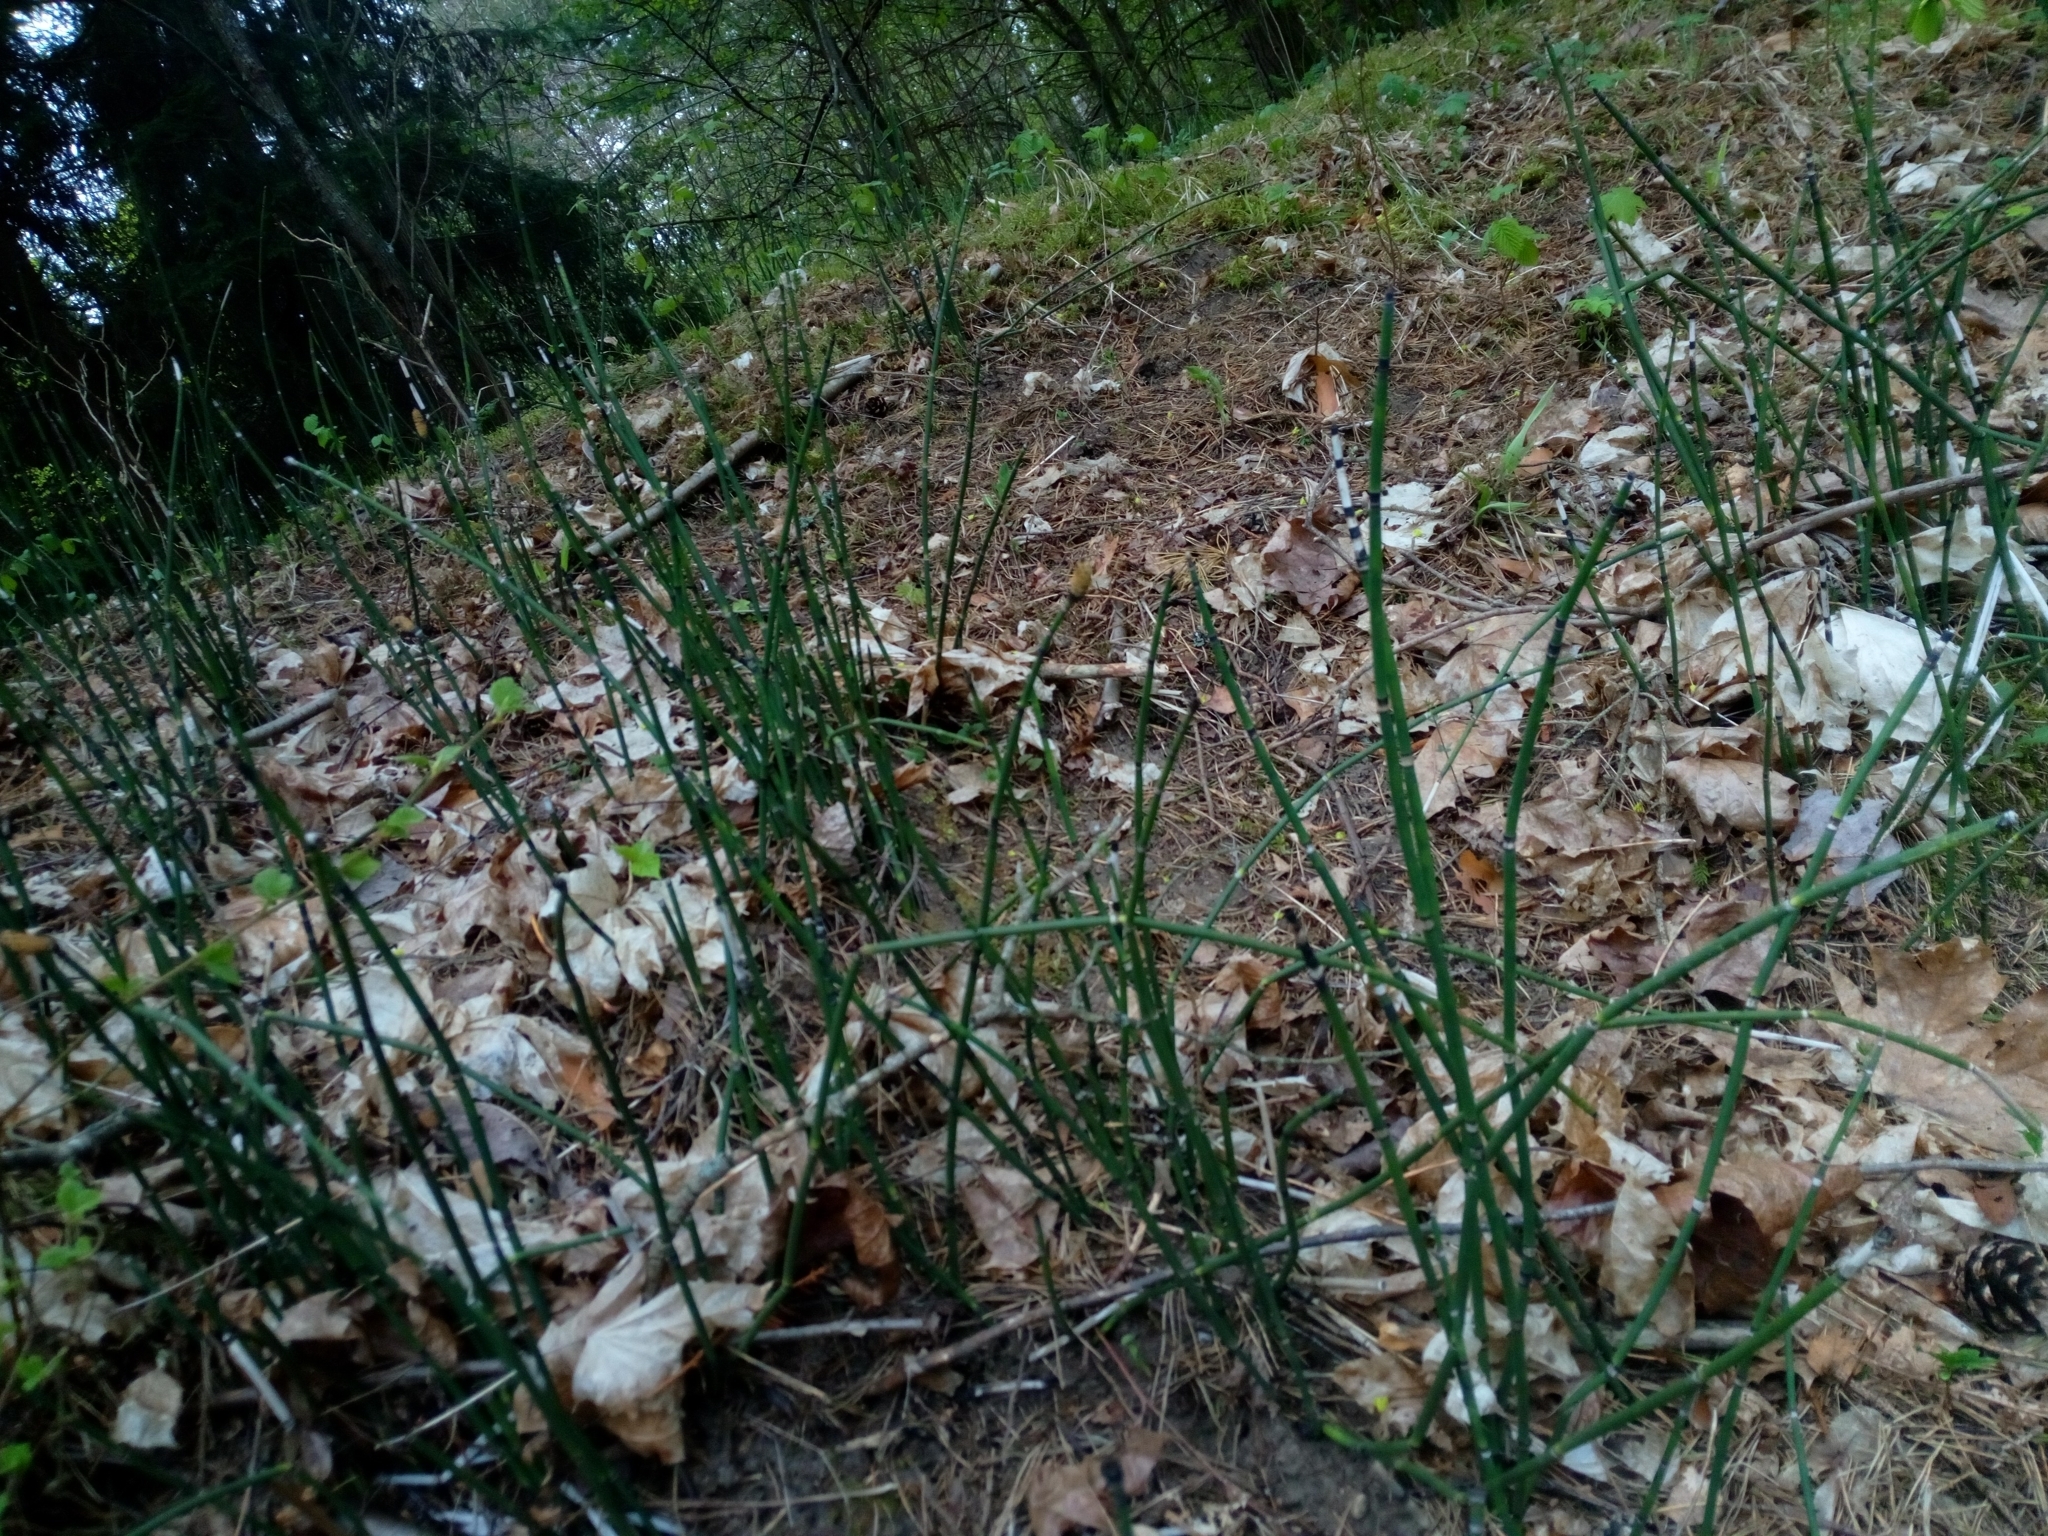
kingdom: Plantae
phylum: Tracheophyta
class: Polypodiopsida
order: Equisetales
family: Equisetaceae
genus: Equisetum
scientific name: Equisetum hyemale
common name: Rough horsetail
